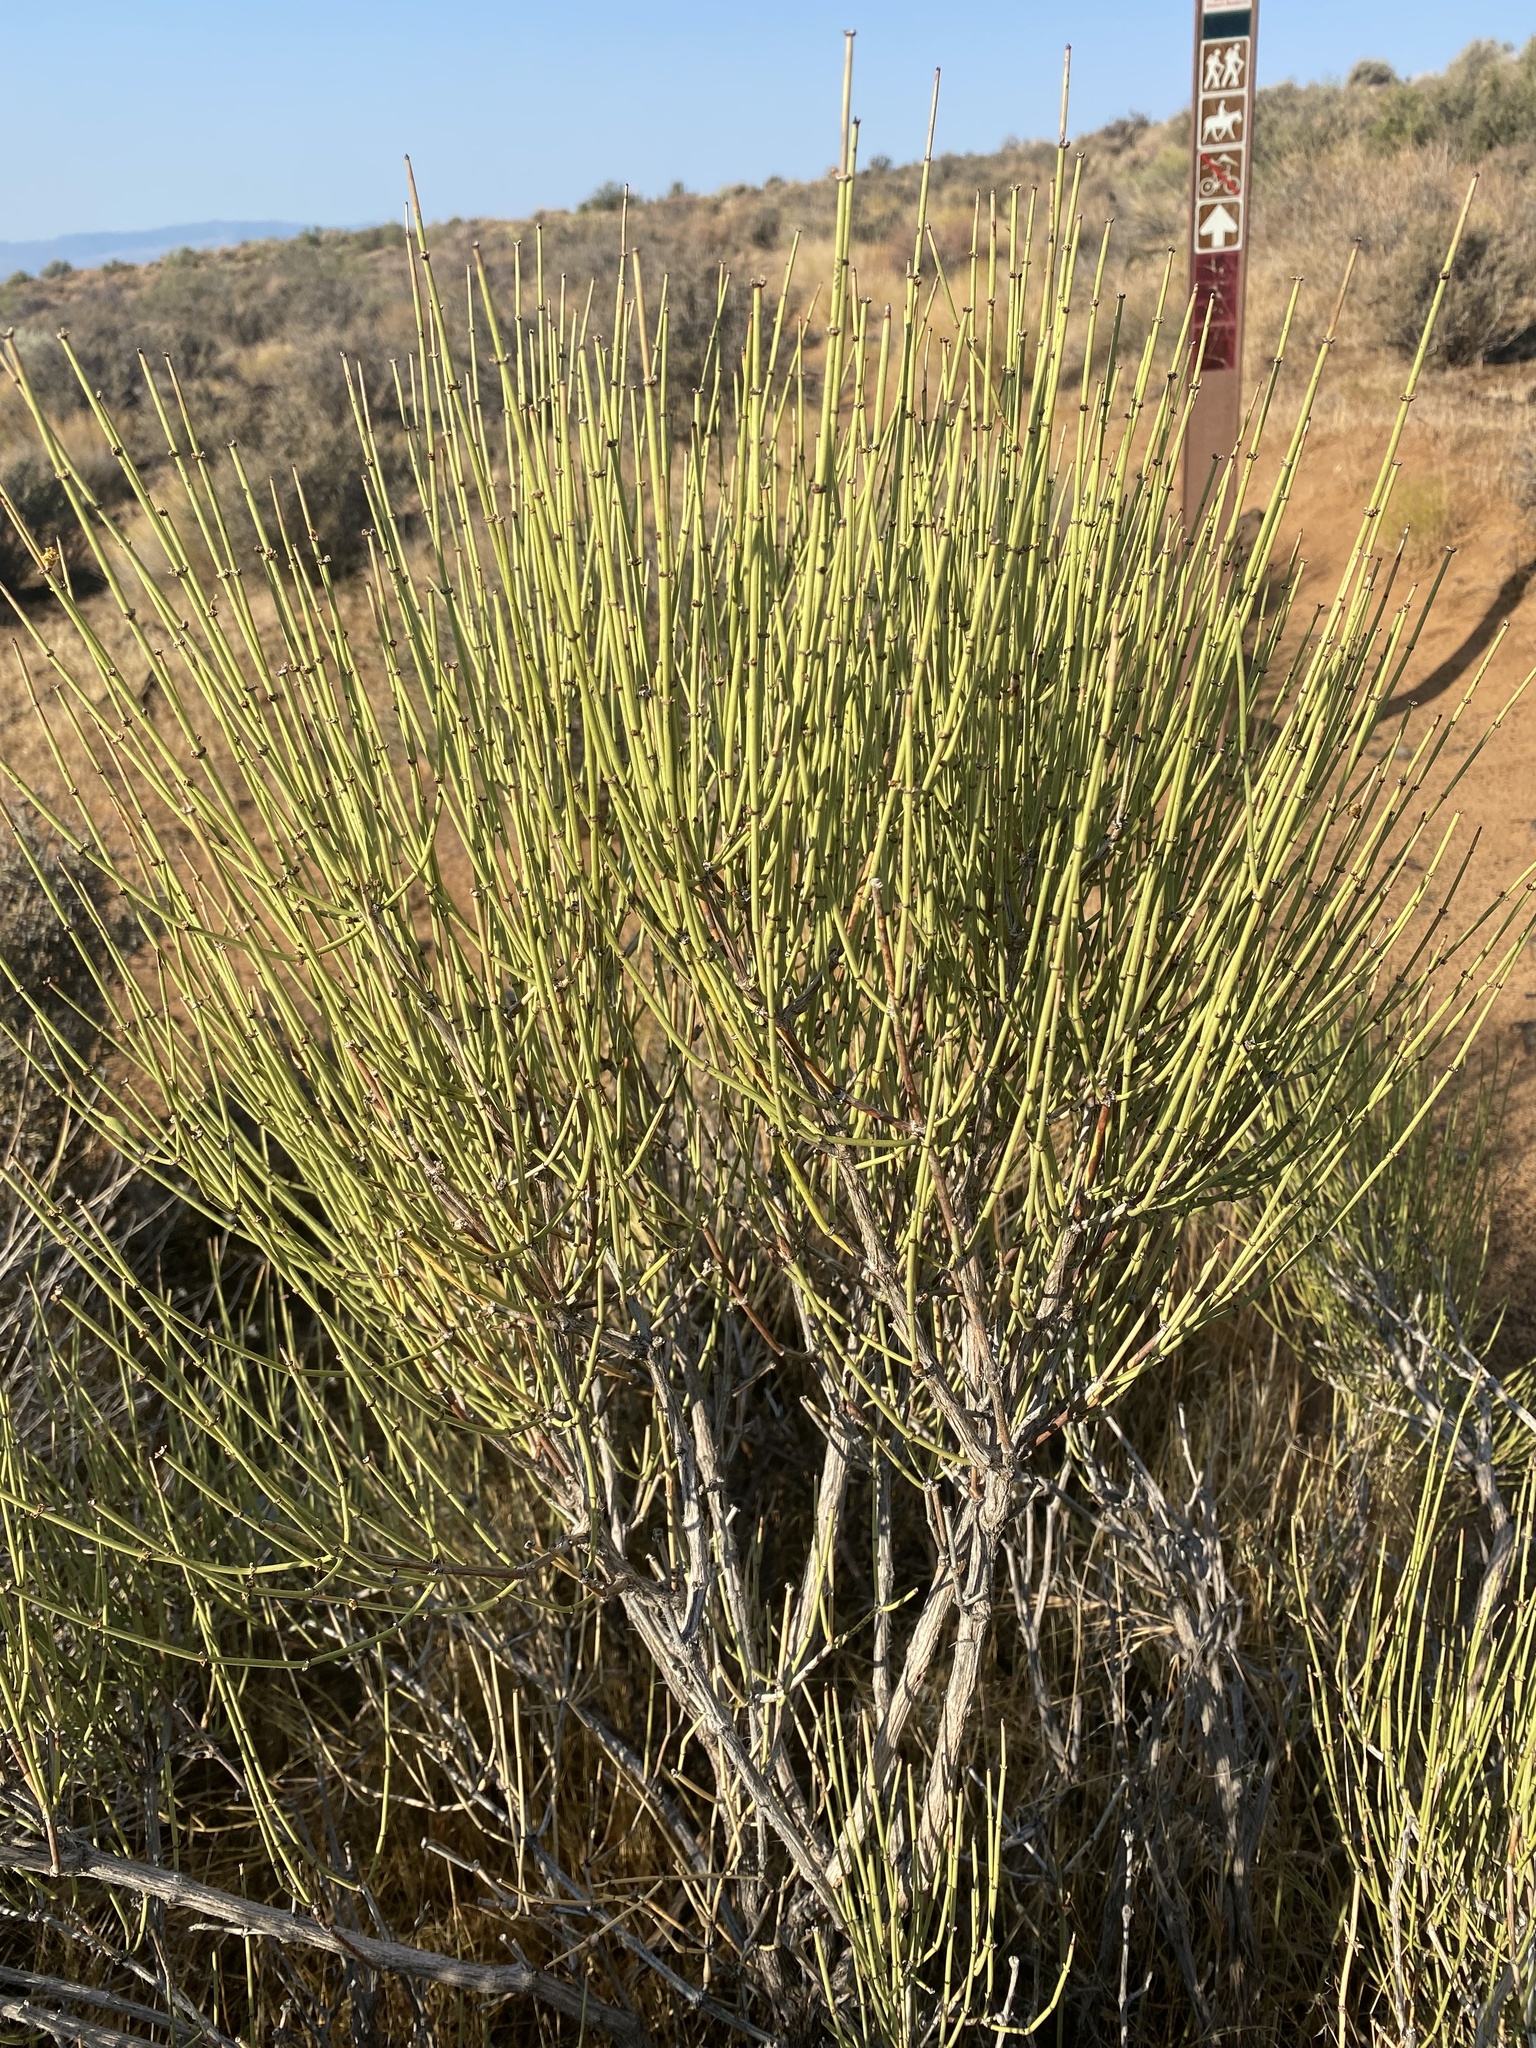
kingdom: Plantae
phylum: Tracheophyta
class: Gnetopsida
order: Ephedrales
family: Ephedraceae
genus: Ephedra
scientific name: Ephedra viridis
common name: Green ephedra
